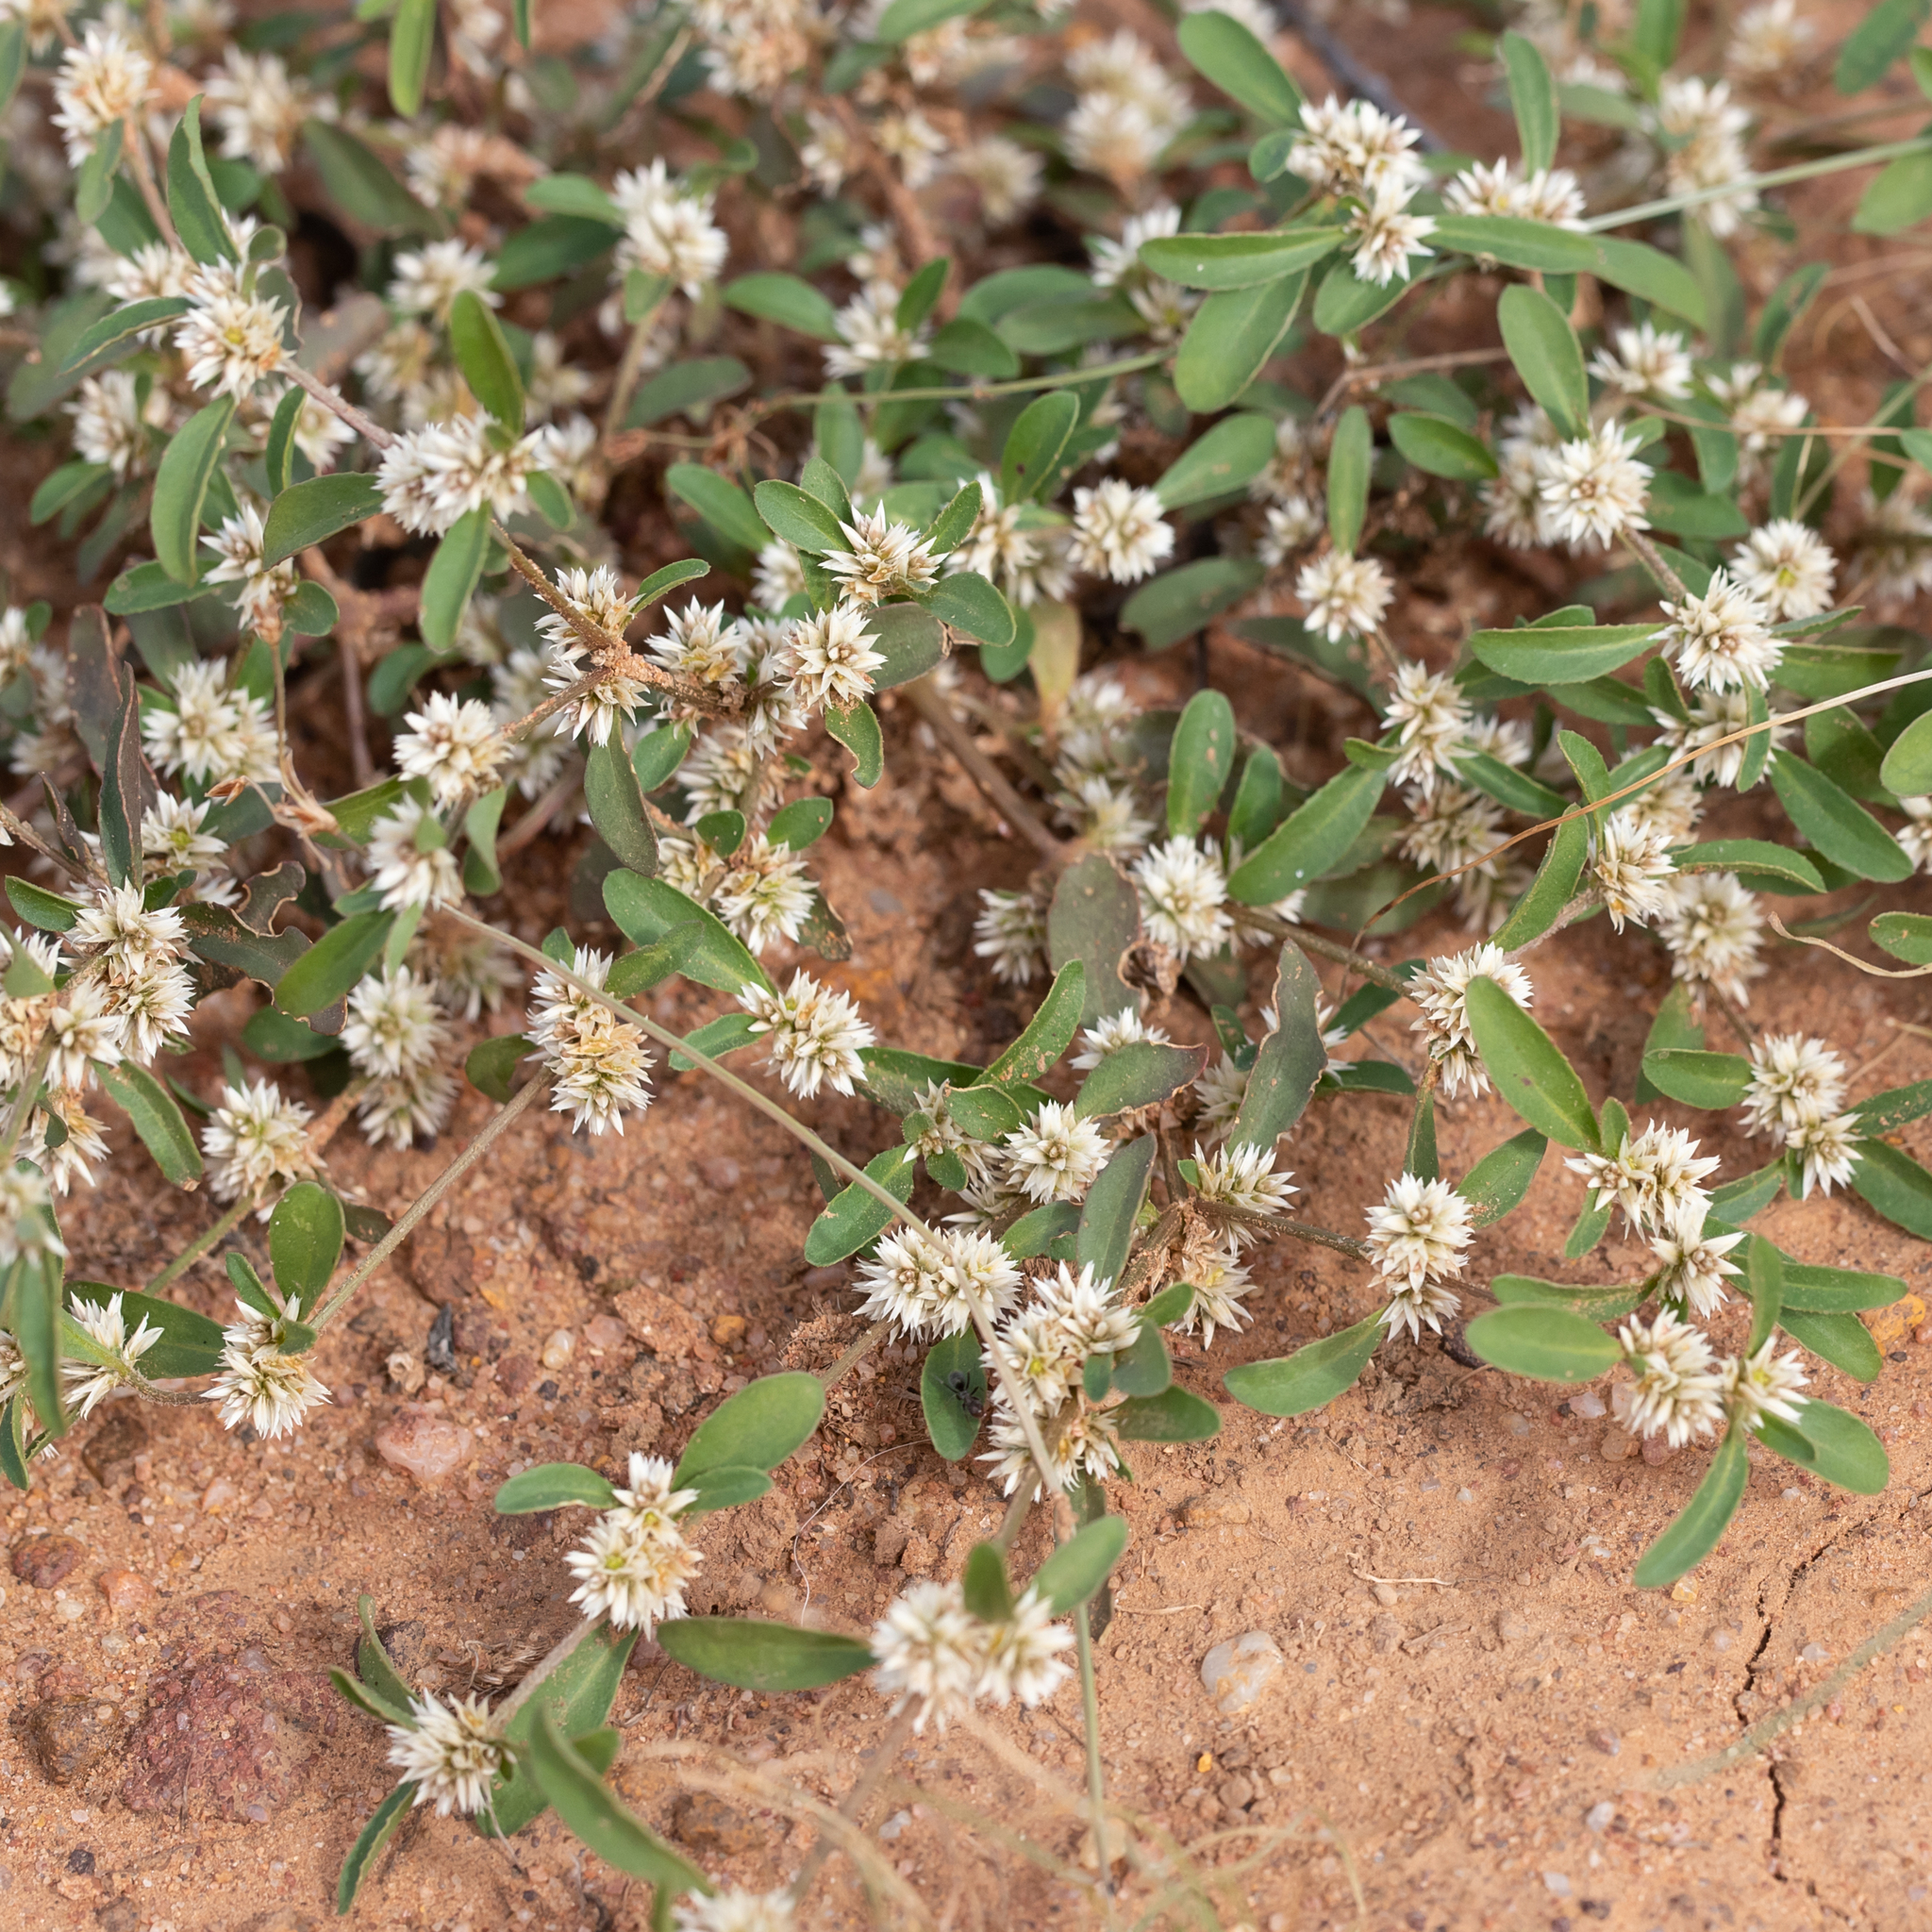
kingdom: Plantae
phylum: Tracheophyta
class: Magnoliopsida
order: Caryophyllales
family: Amaranthaceae
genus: Alternanthera
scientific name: Alternanthera denticulata
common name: Lesser joyweed
